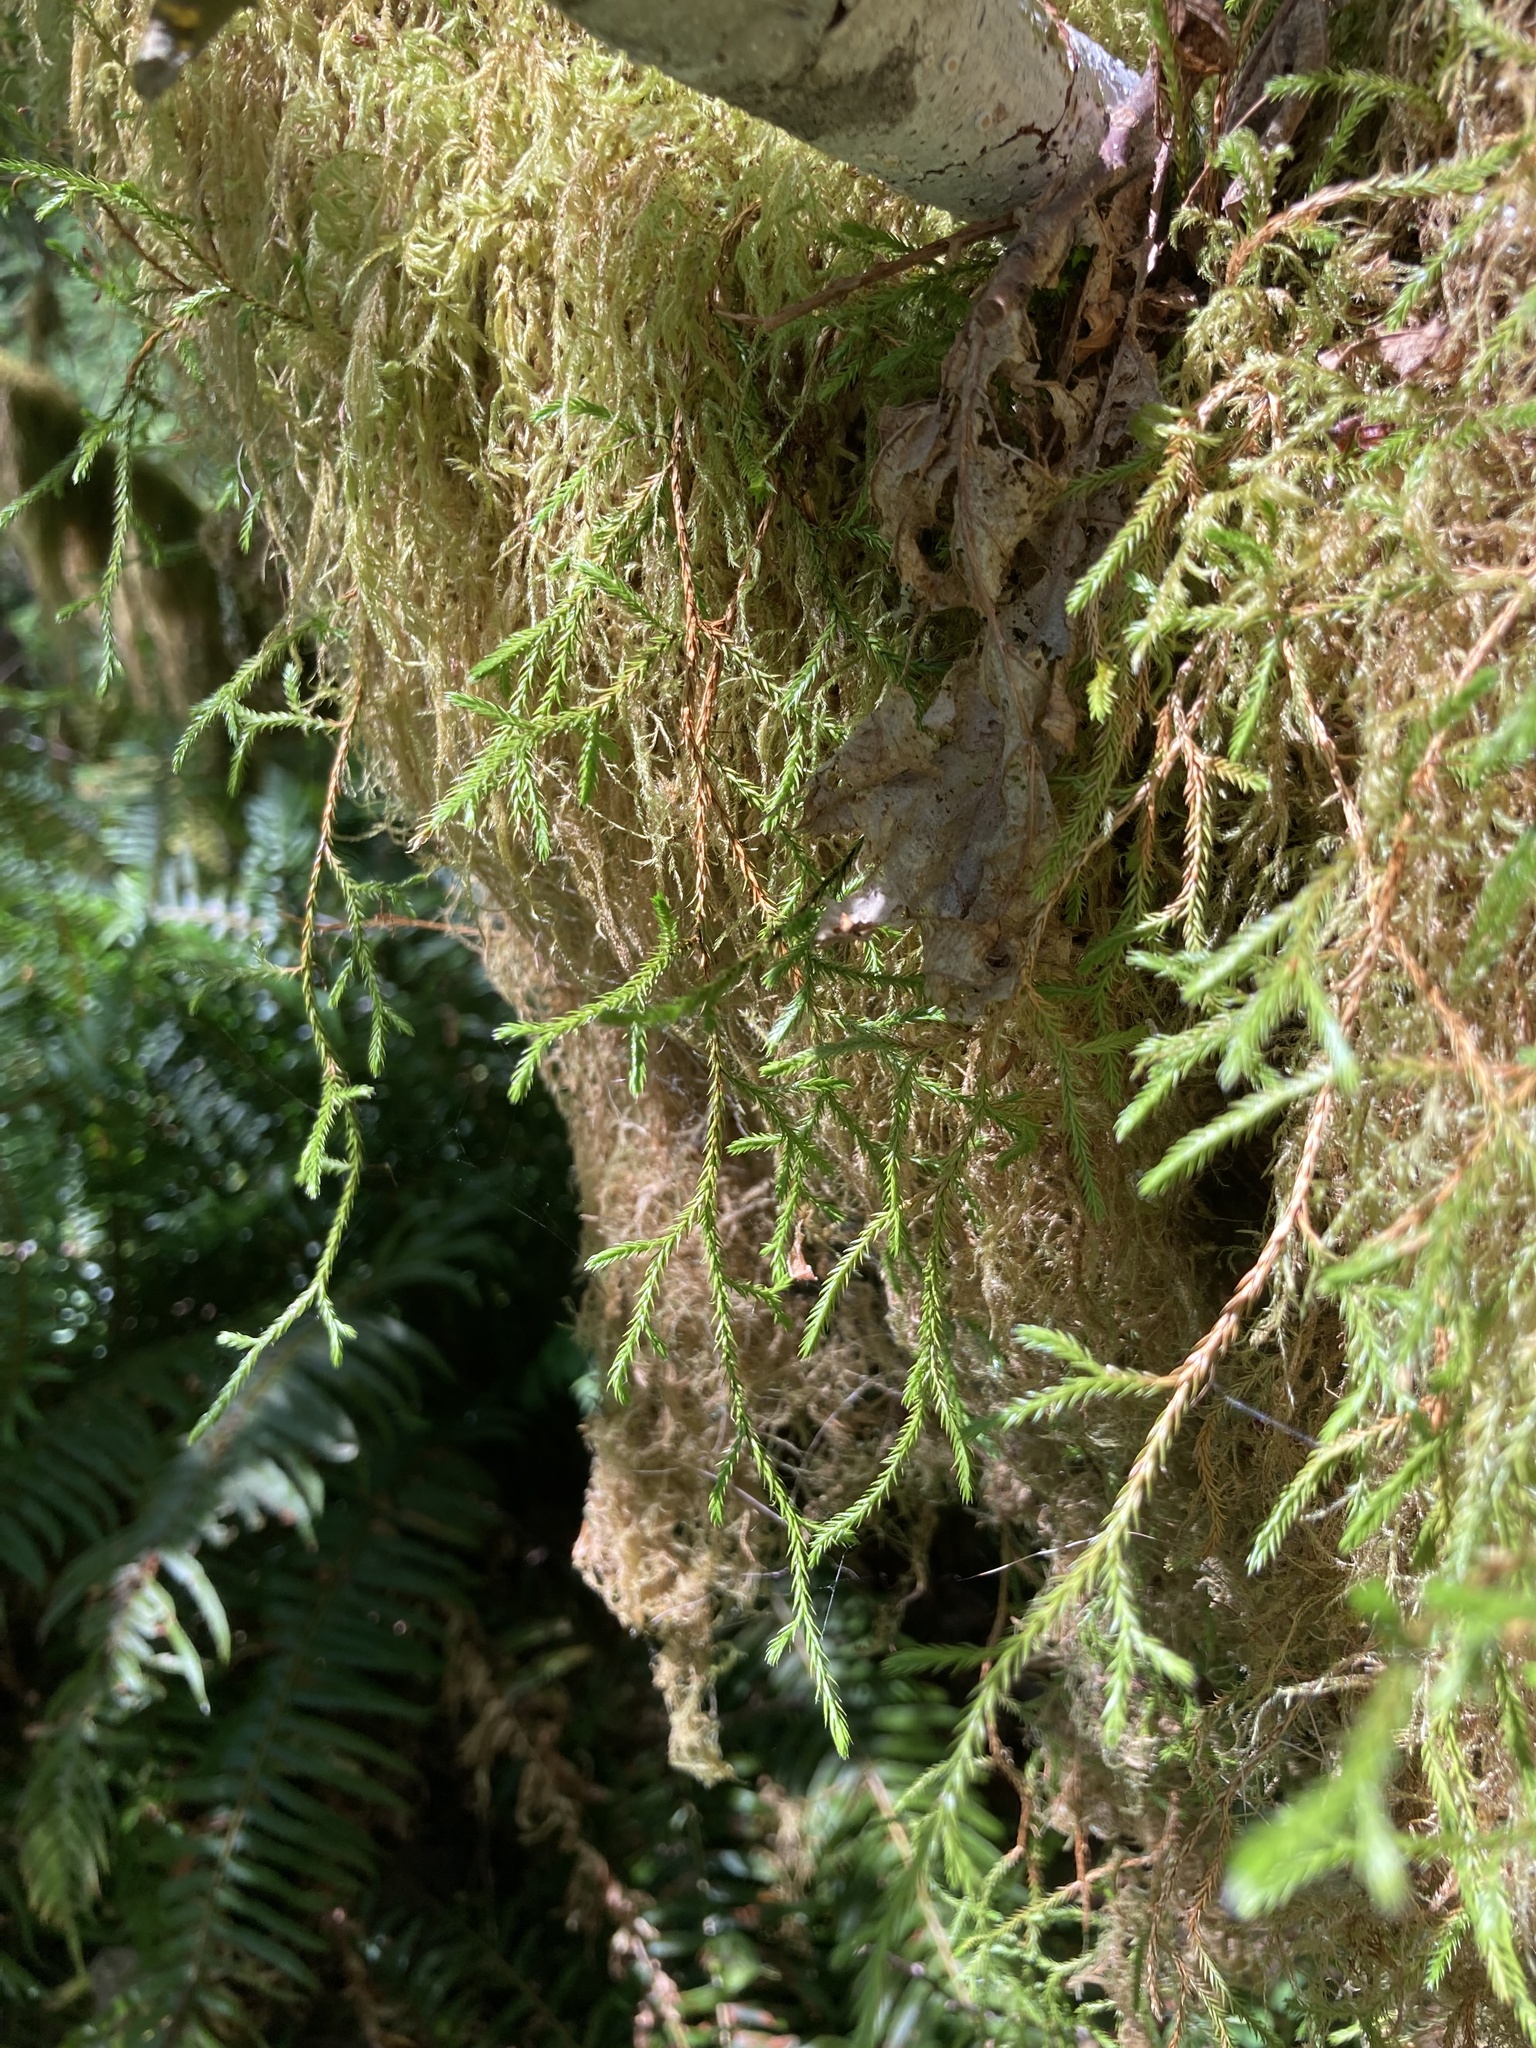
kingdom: Plantae
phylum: Tracheophyta
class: Lycopodiopsida
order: Selaginellales
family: Selaginellaceae
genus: Selaginella
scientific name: Selaginella oregana
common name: Oregon selaginella
